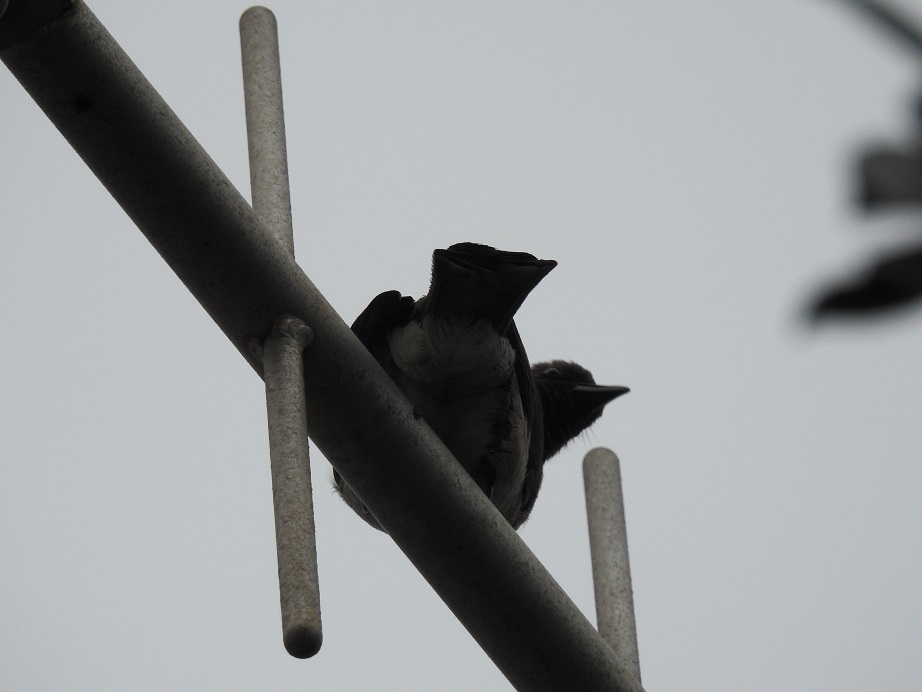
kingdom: Animalia
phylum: Chordata
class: Aves
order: Passeriformes
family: Pycnonotidae
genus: Pycnonotus
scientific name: Pycnonotus barbatus
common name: Common bulbul
